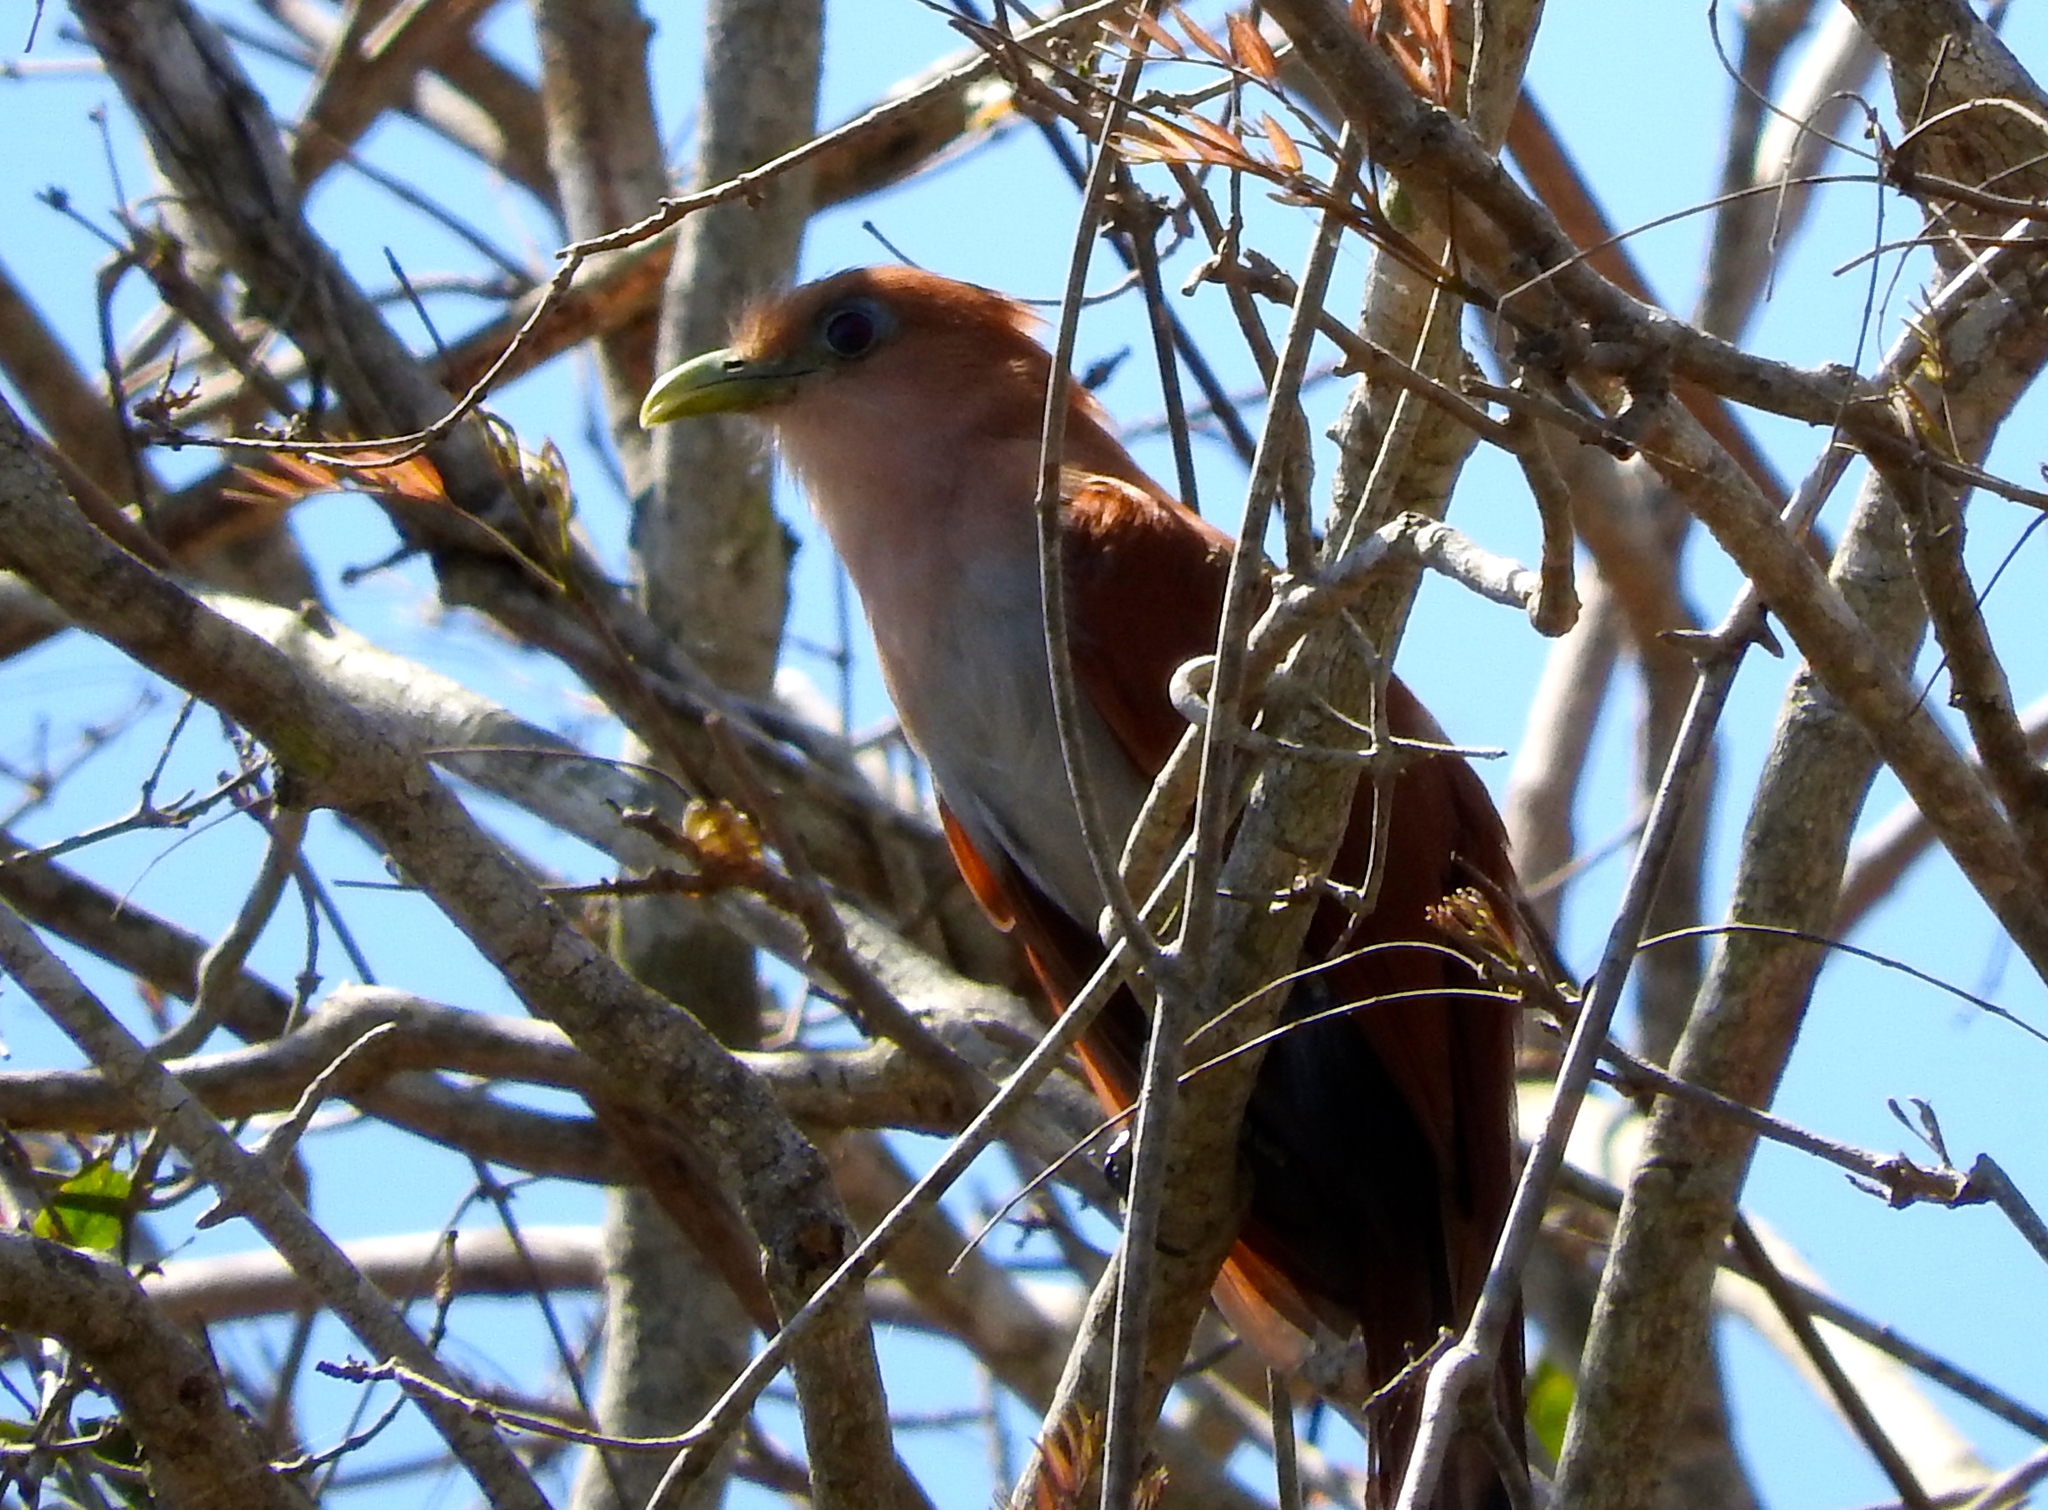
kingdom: Animalia
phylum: Chordata
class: Aves
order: Cuculiformes
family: Cuculidae
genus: Piaya
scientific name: Piaya cayana
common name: Squirrel cuckoo
